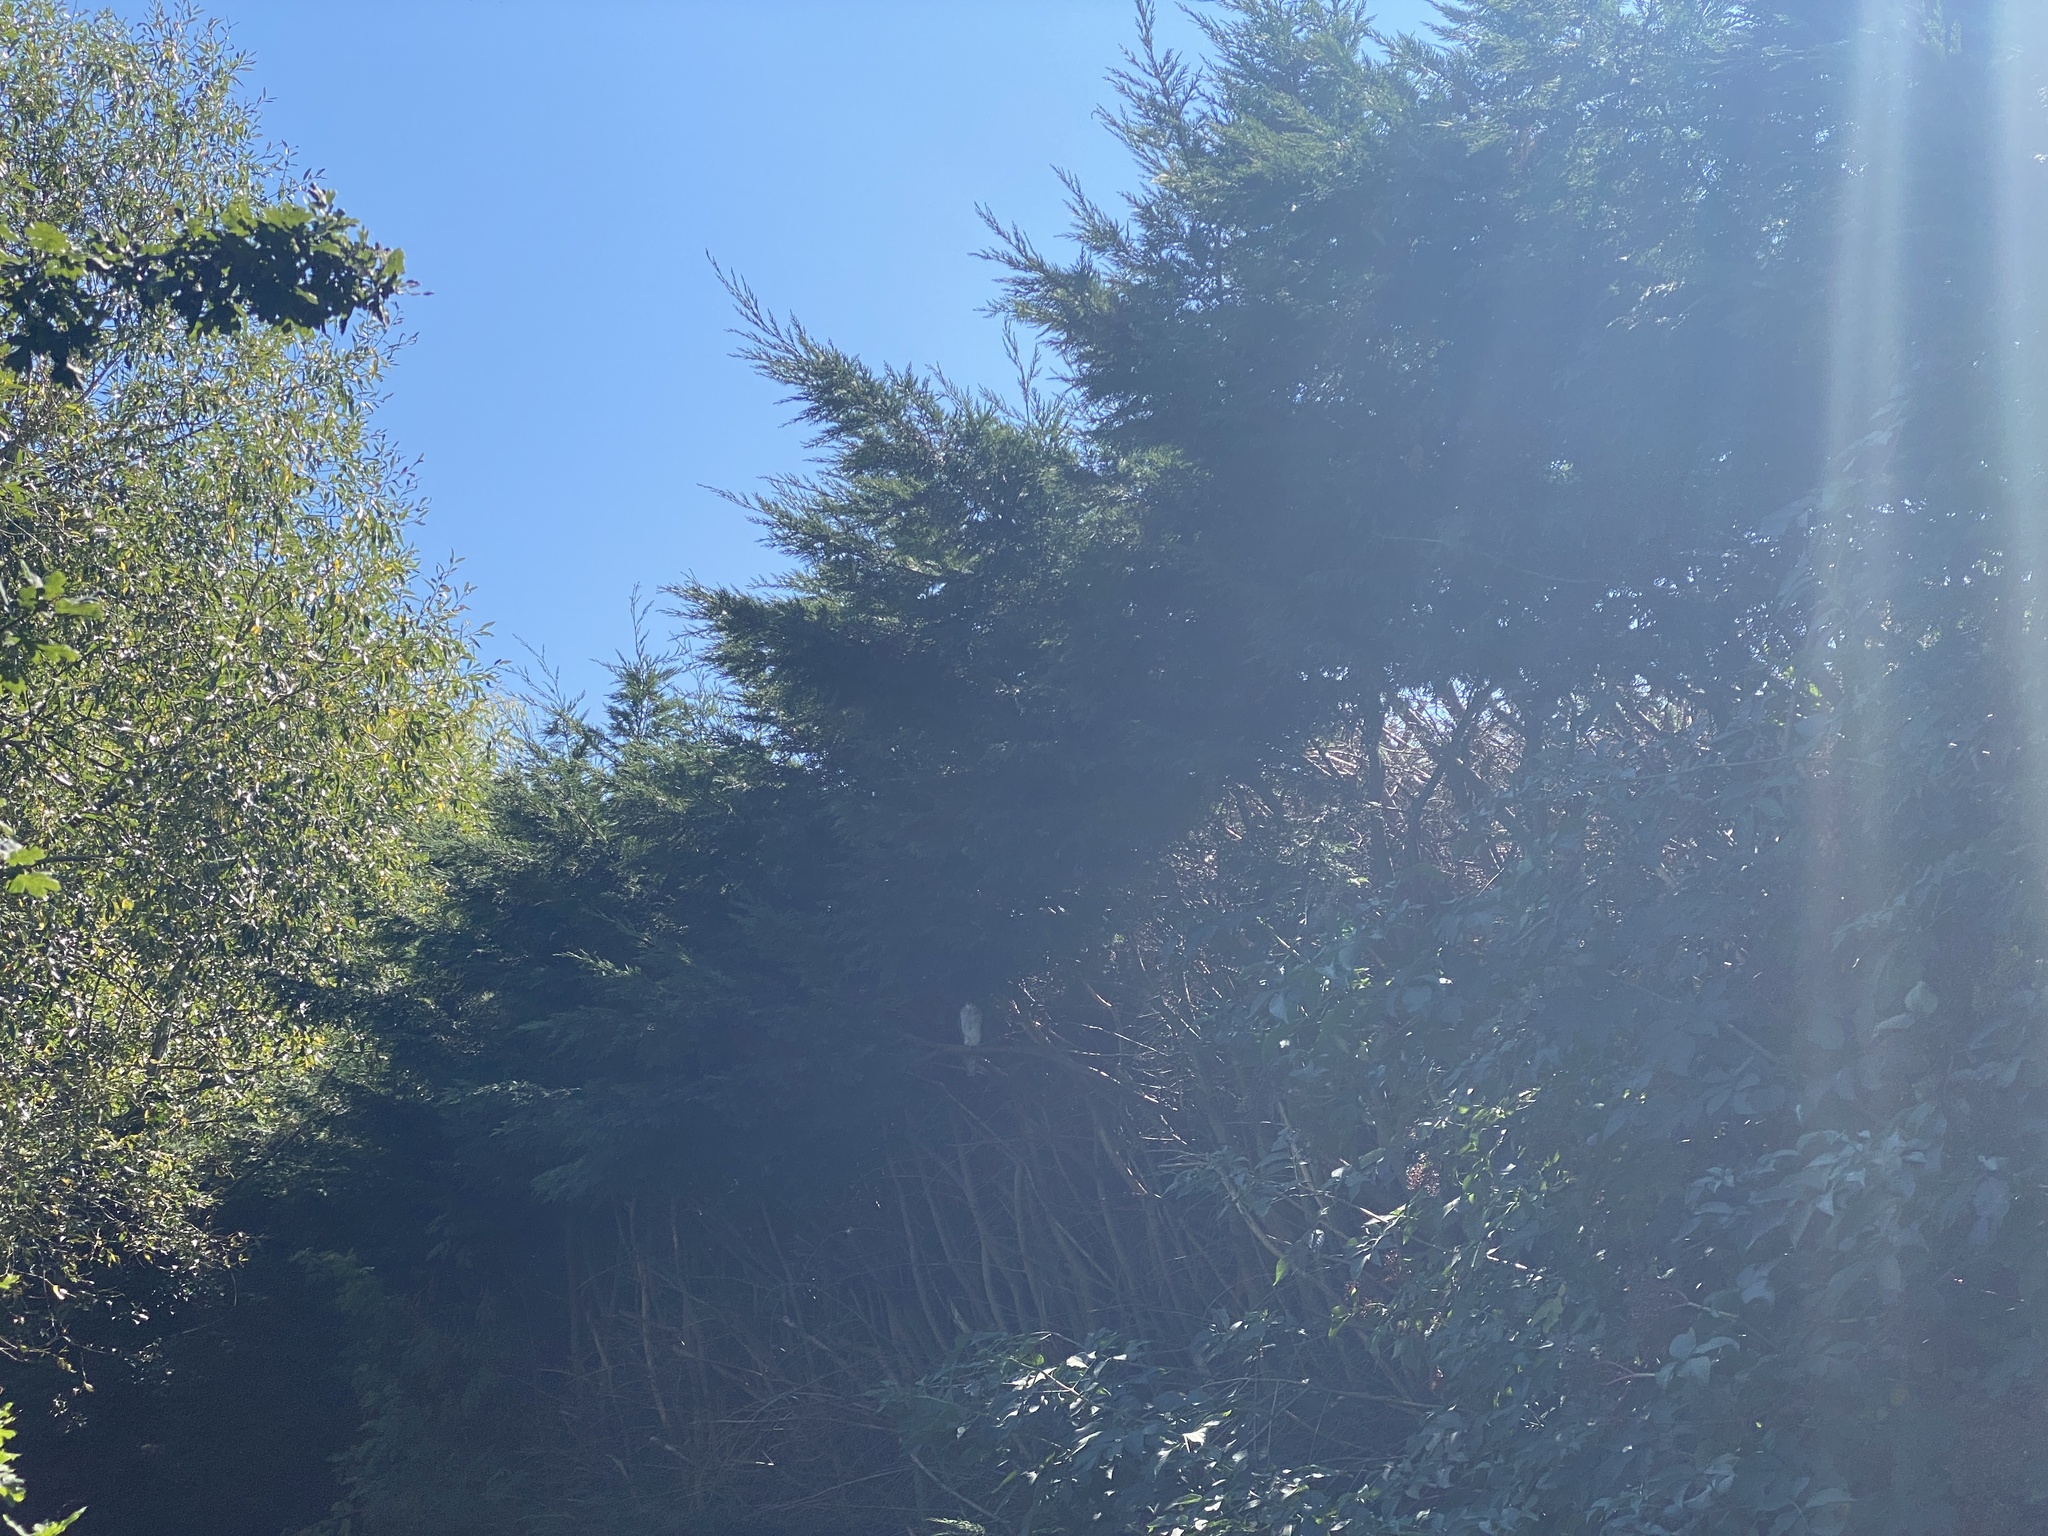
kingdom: Animalia
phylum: Chordata
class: Aves
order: Accipitriformes
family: Accipitridae
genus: Accipiter
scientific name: Accipiter nisus
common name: Eurasian sparrowhawk
